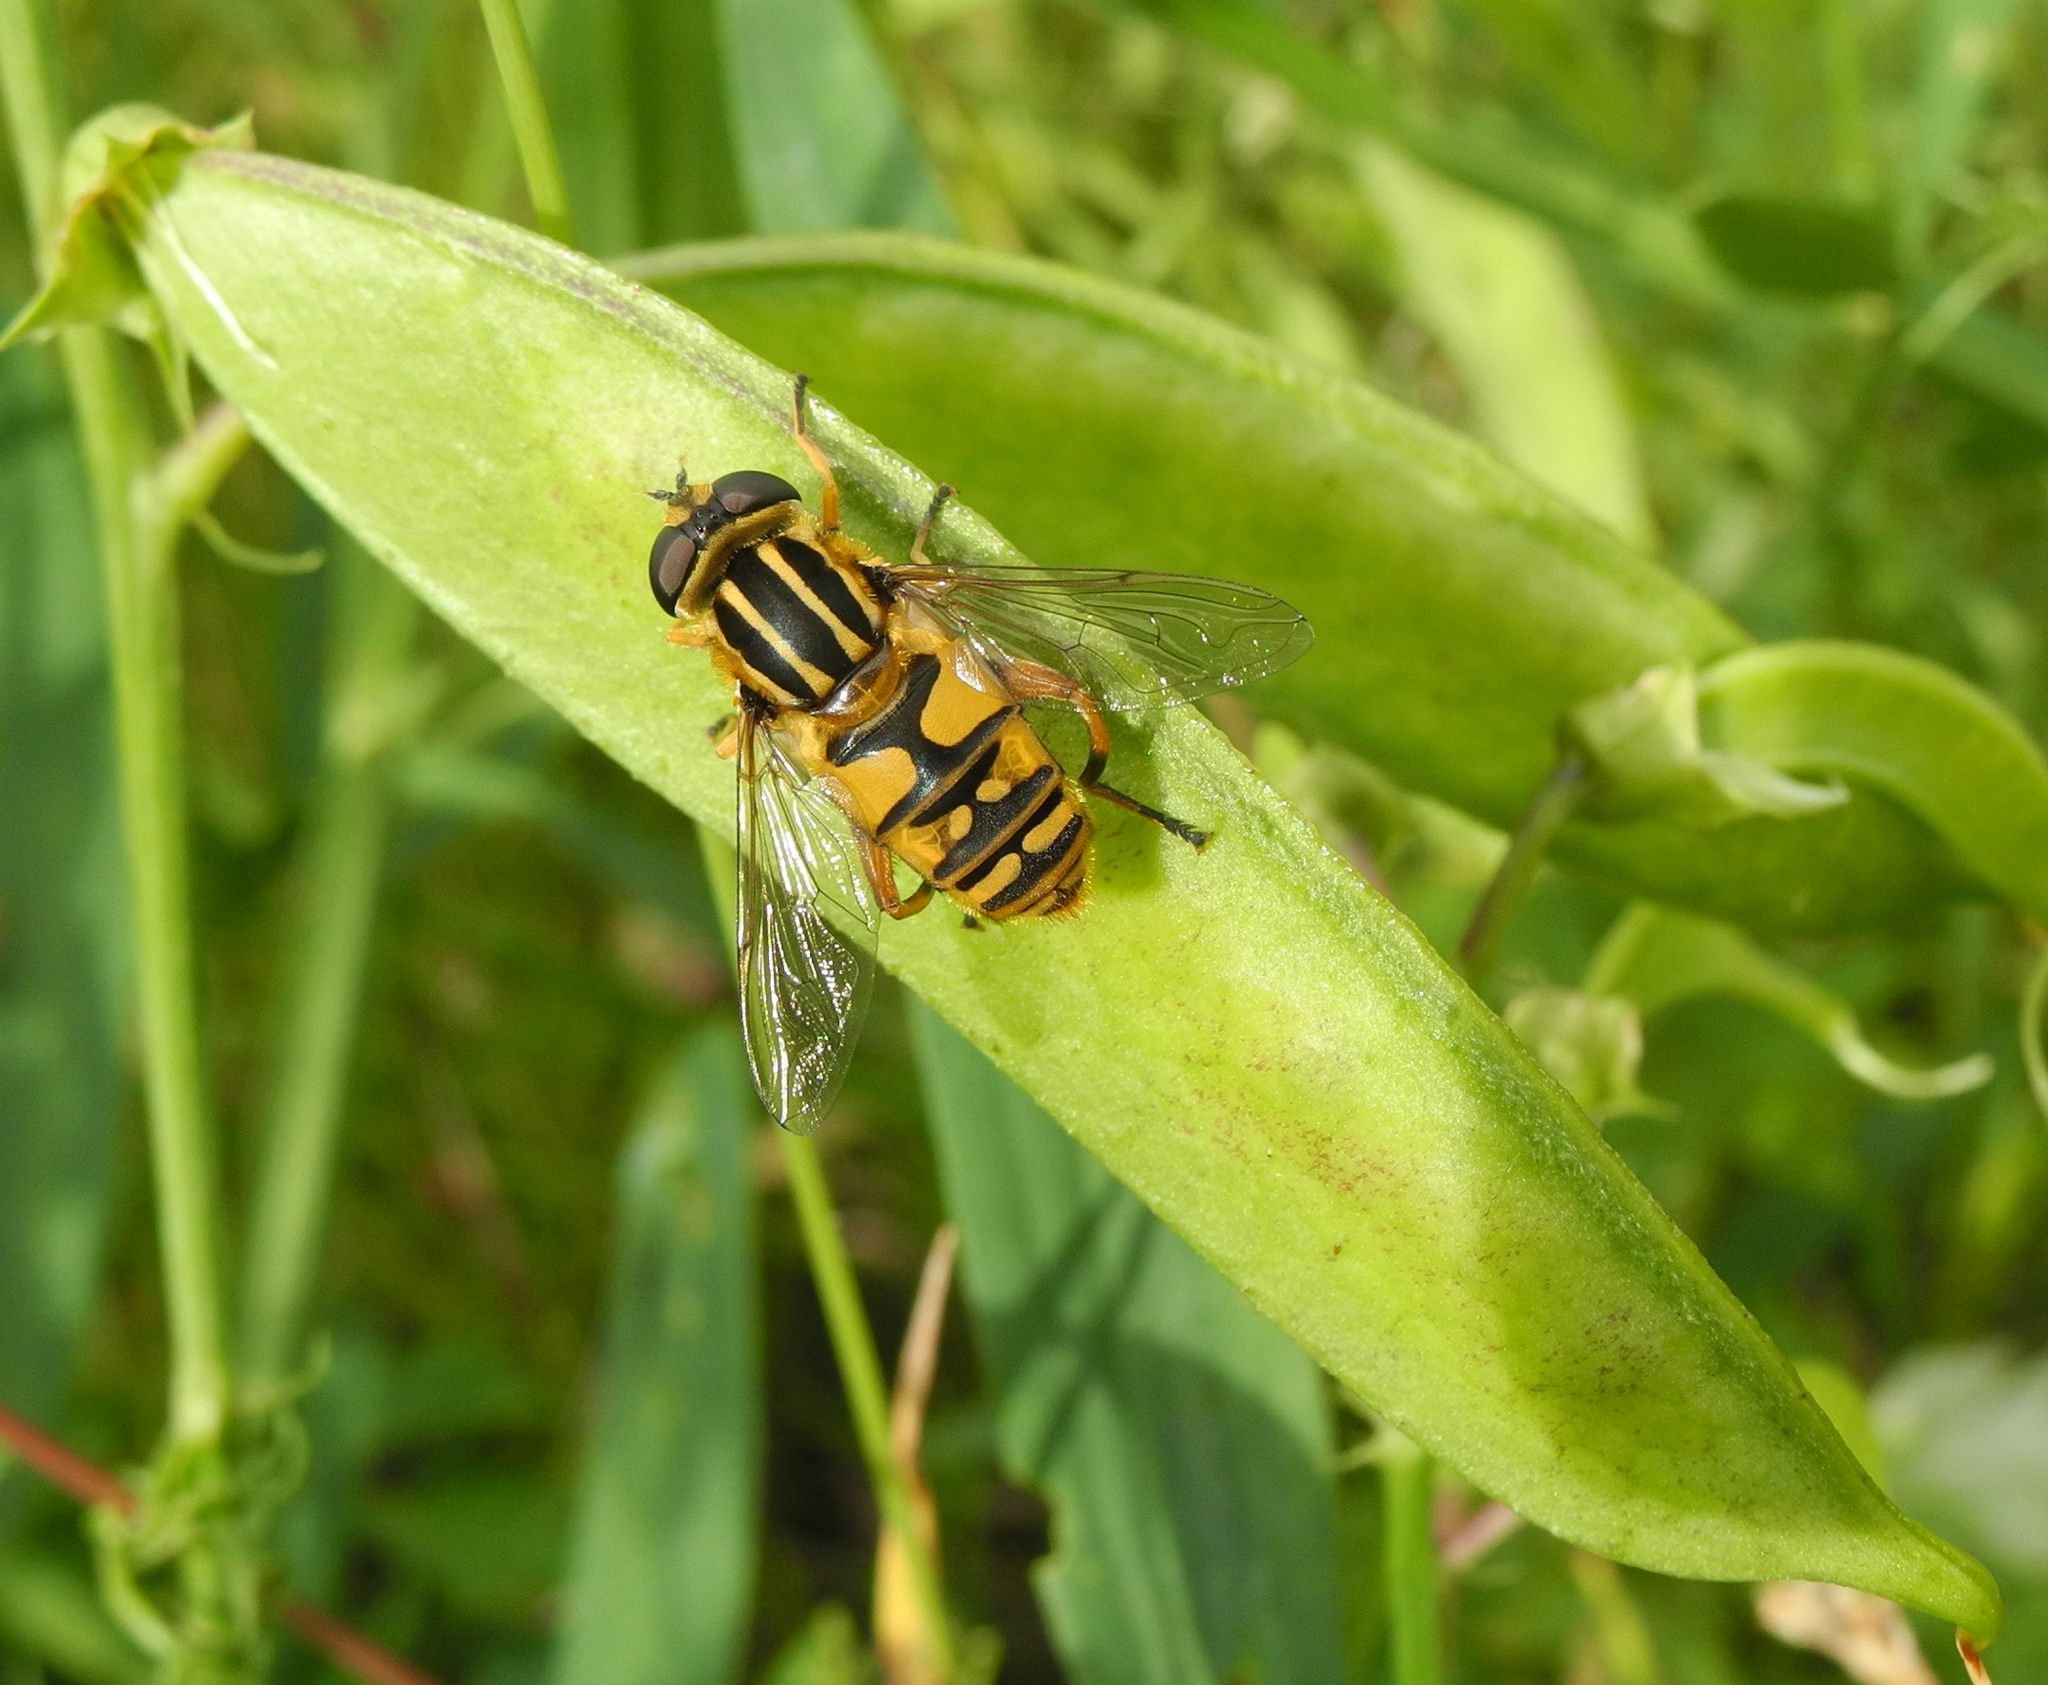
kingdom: Animalia
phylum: Arthropoda
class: Insecta
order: Diptera
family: Syrphidae
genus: Helophilus
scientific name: Helophilus pendulus
